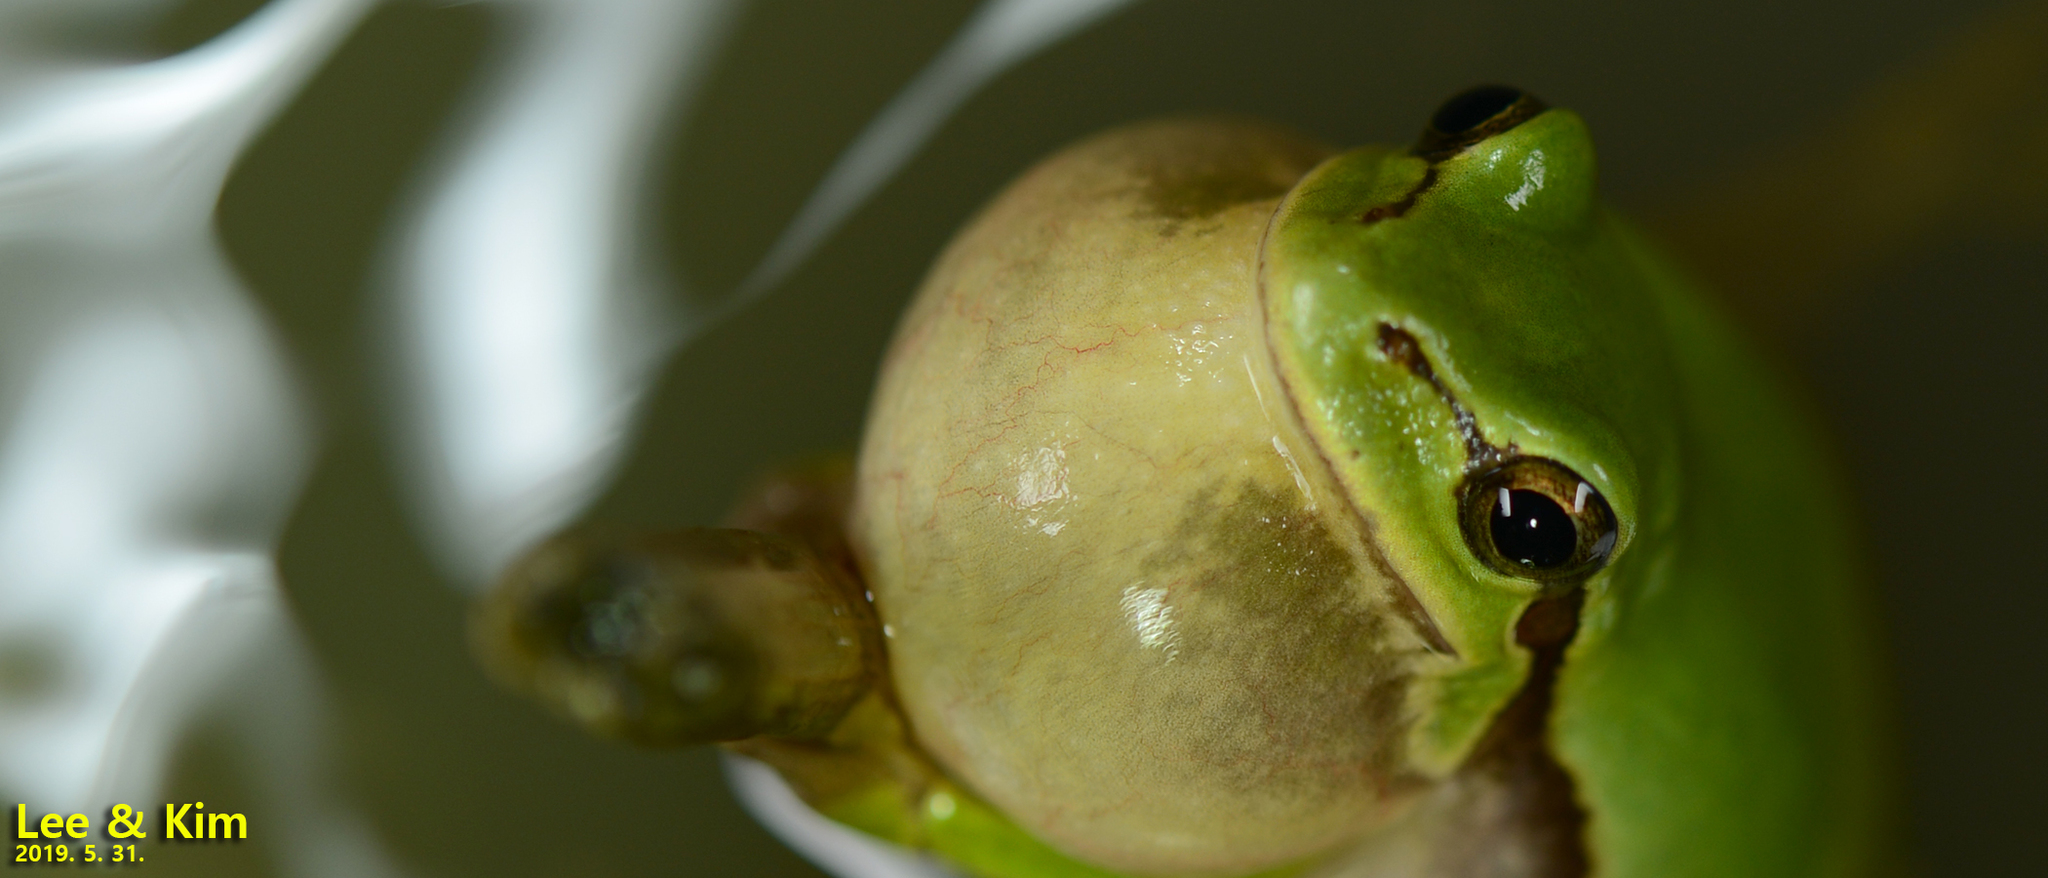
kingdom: Animalia
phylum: Chordata
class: Amphibia
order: Anura
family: Hylidae
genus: Dryophytes
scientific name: Dryophytes immaculatus
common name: North china treefrog
